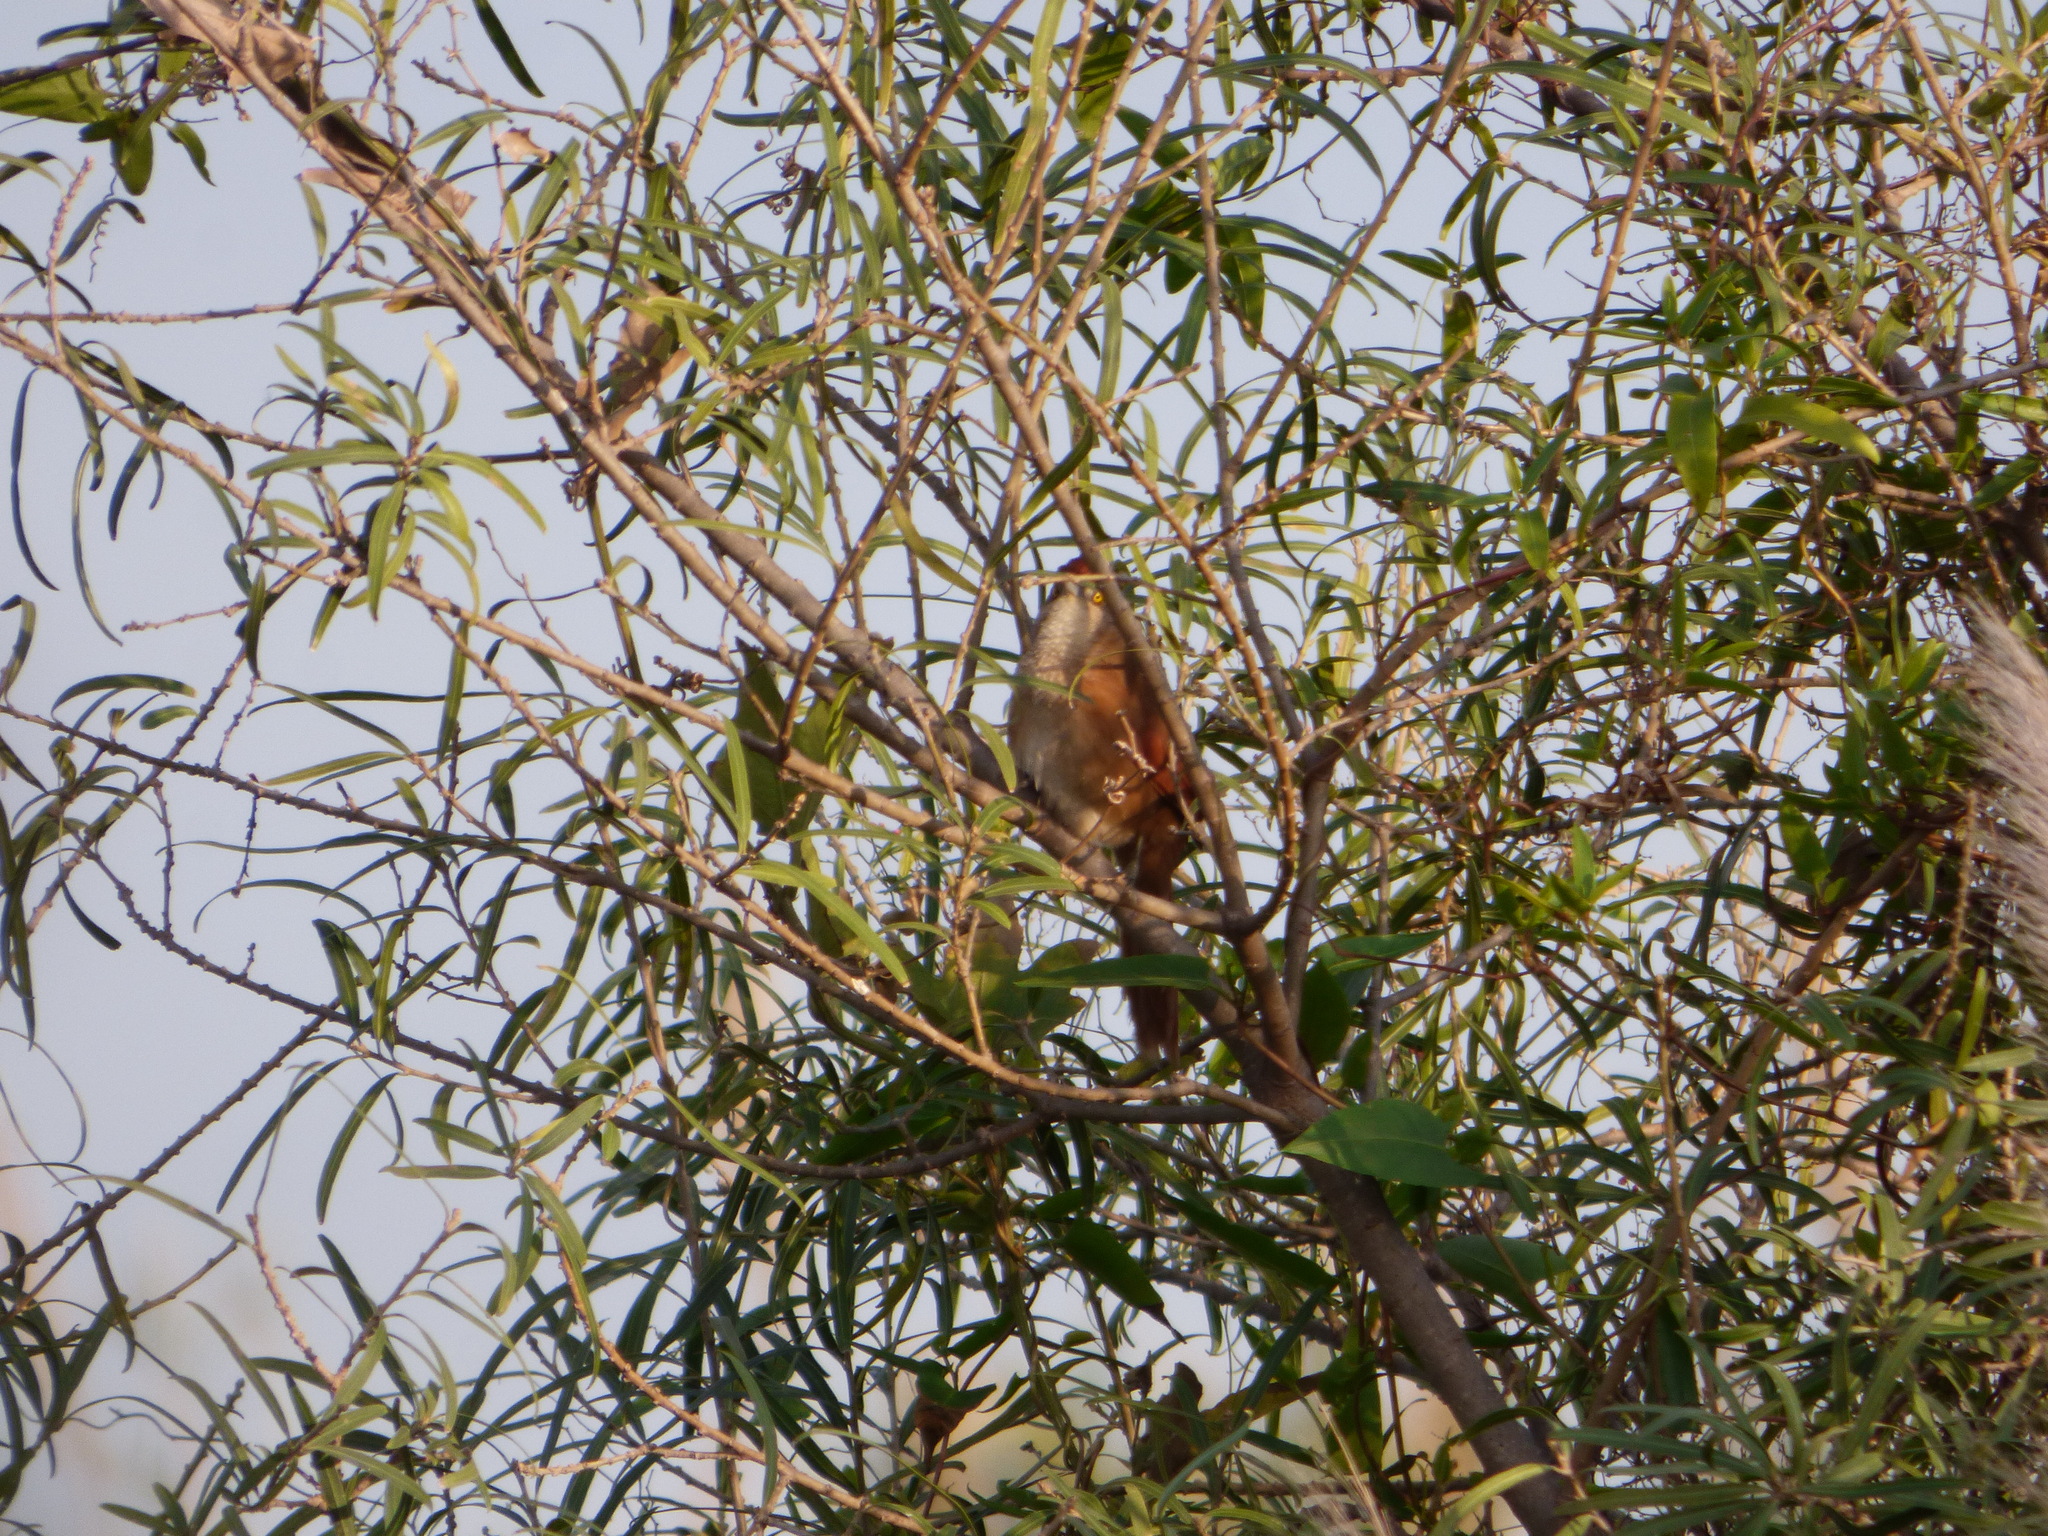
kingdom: Animalia
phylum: Chordata
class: Aves
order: Passeriformes
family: Furnariidae
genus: Phacellodomus
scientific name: Phacellodomus ruber
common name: Greater thornbird
